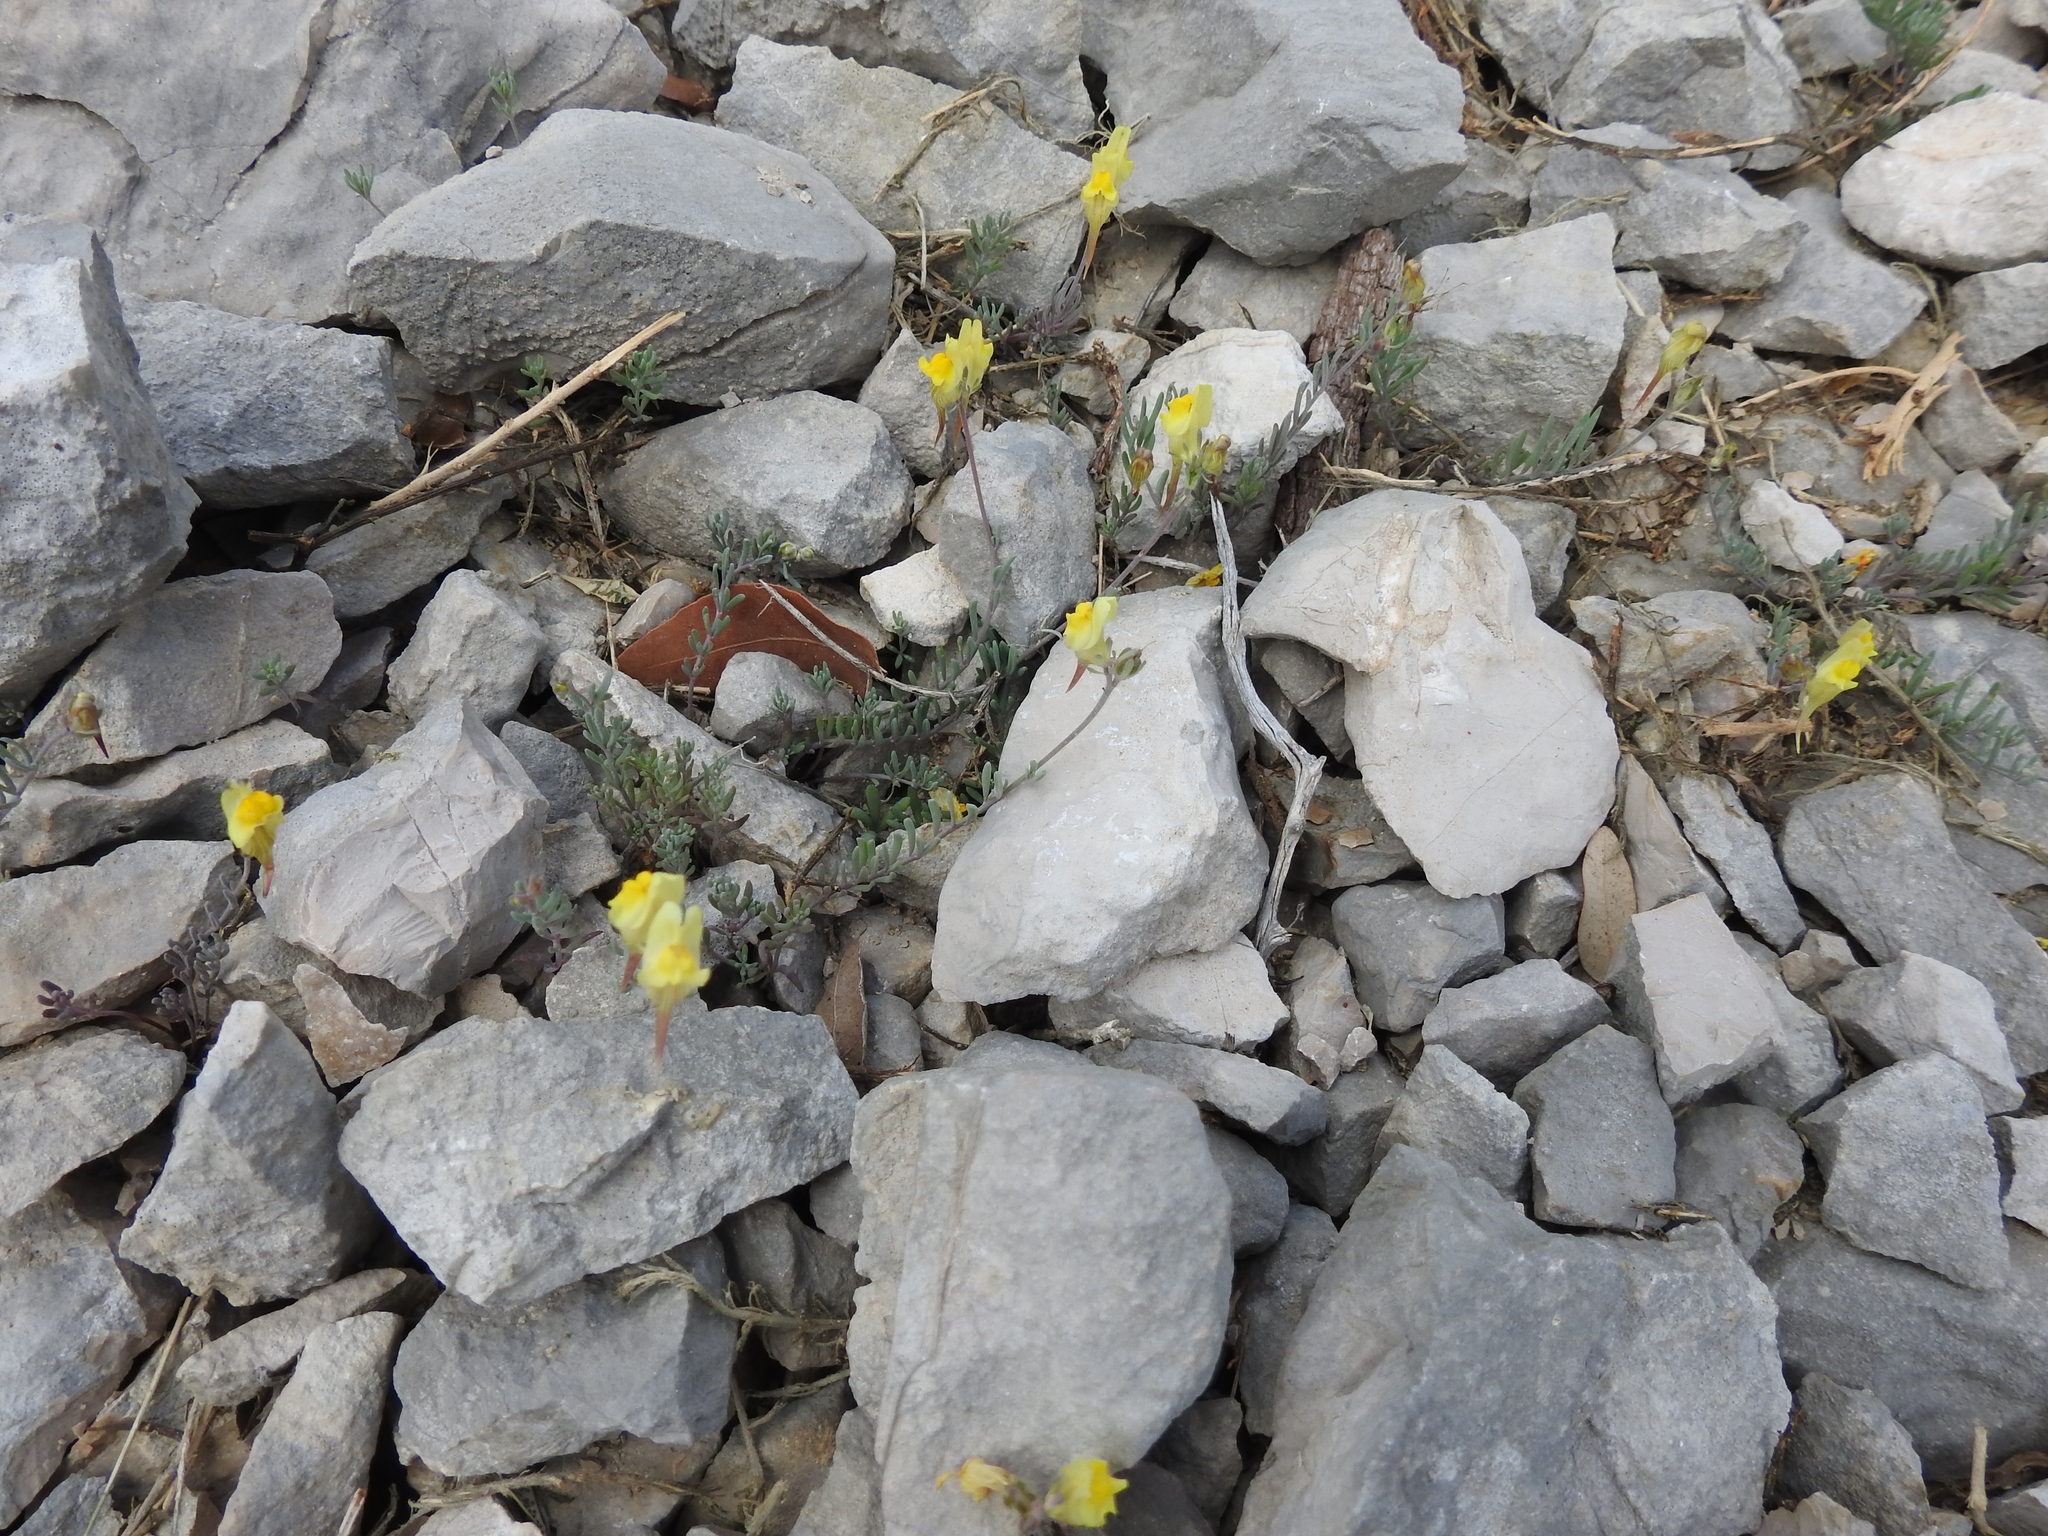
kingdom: Plantae
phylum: Tracheophyta
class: Magnoliopsida
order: Lamiales
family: Plantaginaceae
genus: Linaria
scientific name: Linaria supina
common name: Prostrate toadflax
